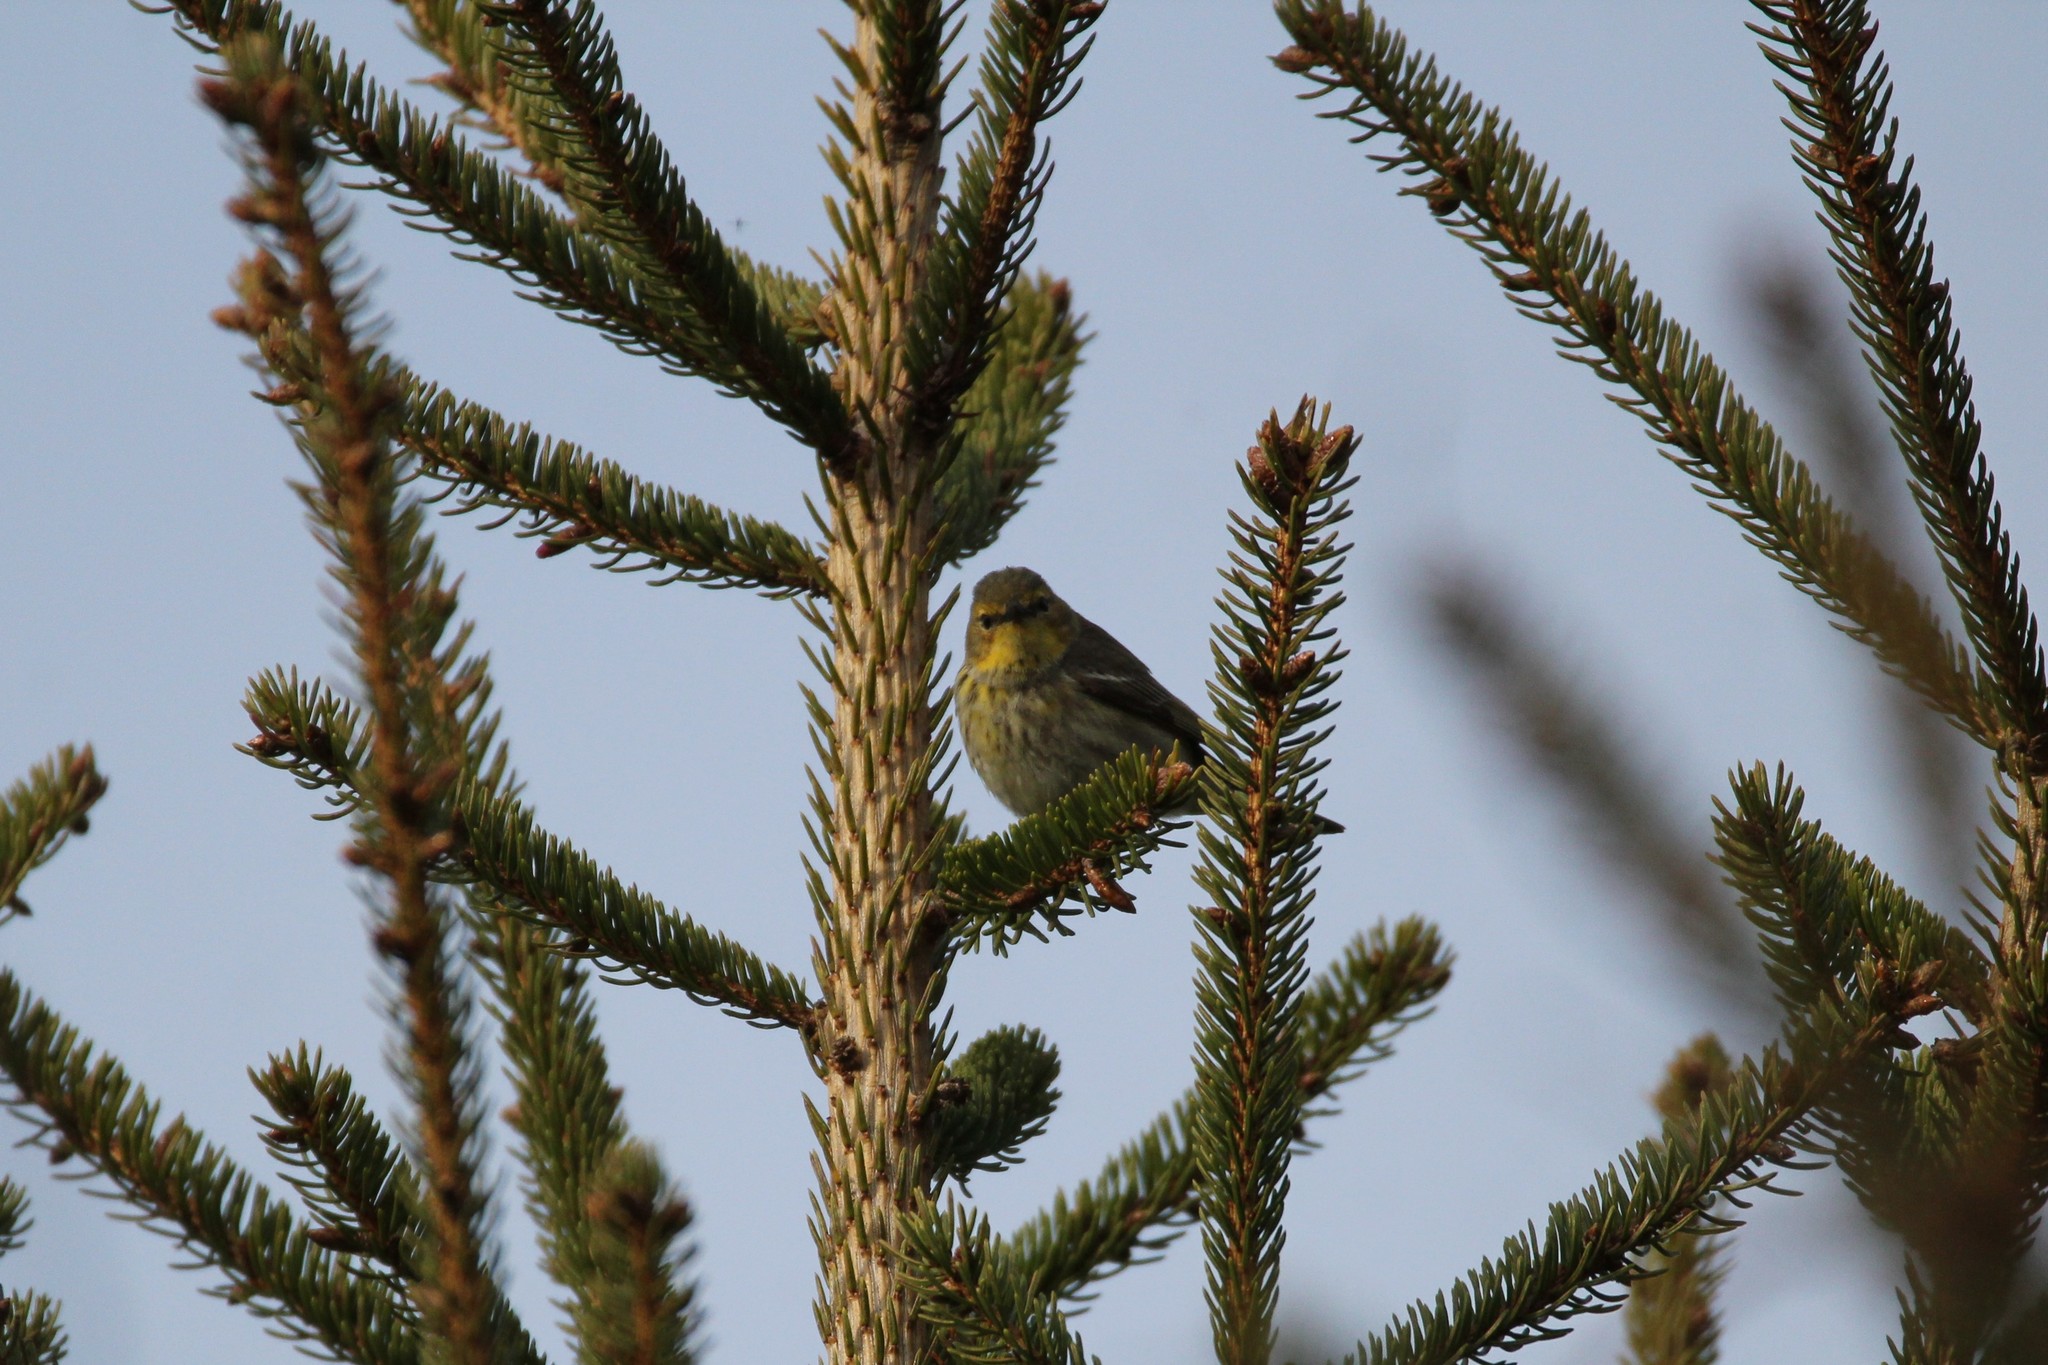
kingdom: Animalia
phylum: Chordata
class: Aves
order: Passeriformes
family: Parulidae
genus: Setophaga
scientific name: Setophaga tigrina
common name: Cape may warbler
